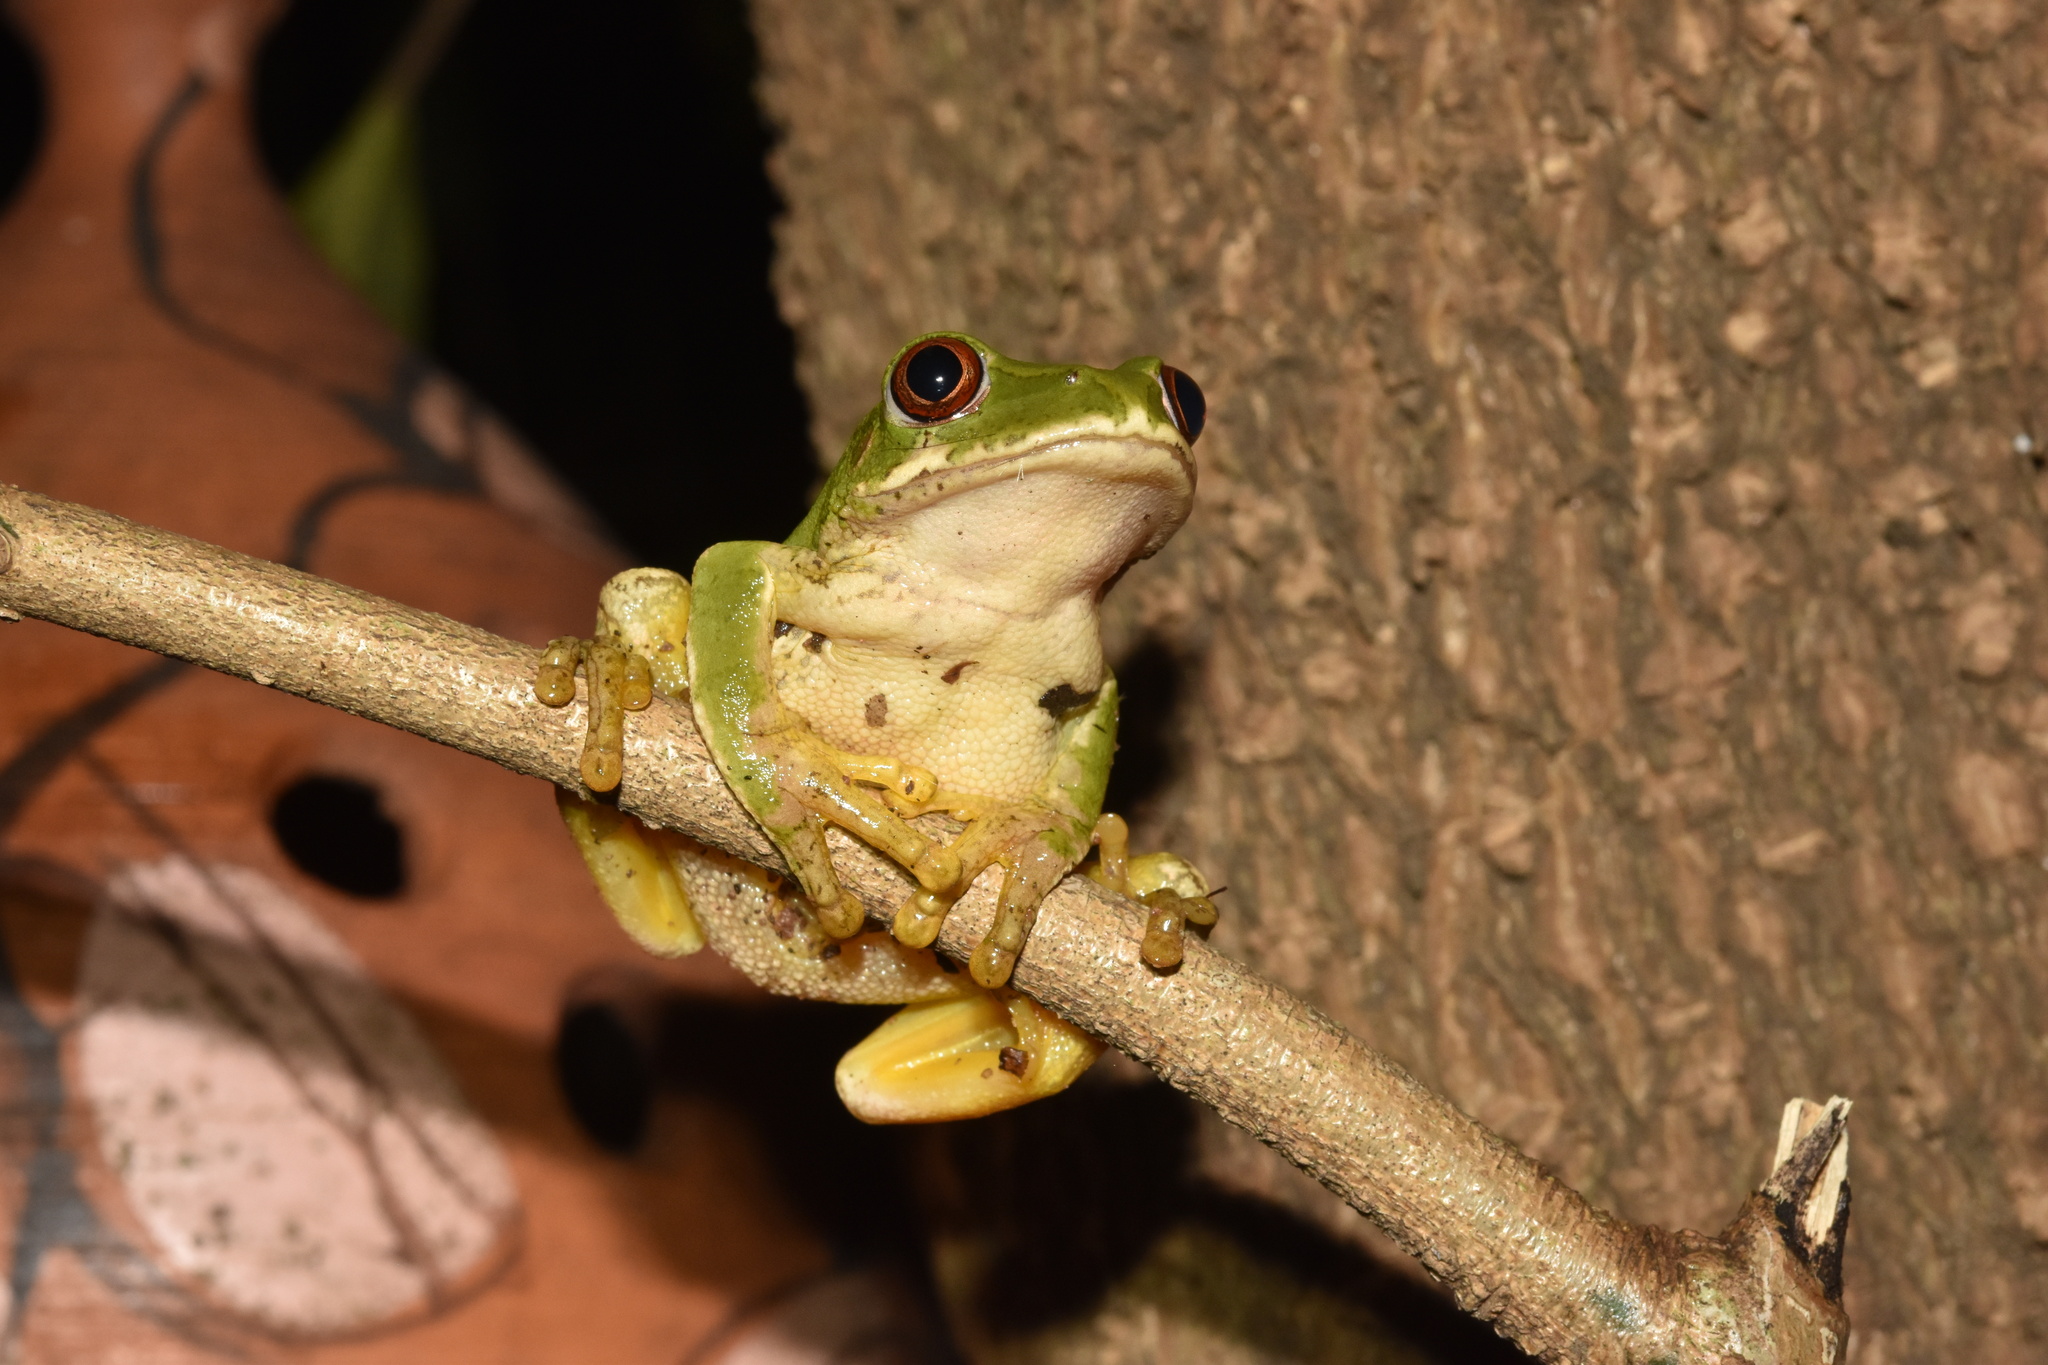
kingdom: Animalia
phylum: Chordata
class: Amphibia
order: Anura
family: Arthroleptidae
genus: Leptopelis
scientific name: Leptopelis natalensis
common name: Natal tree frog
